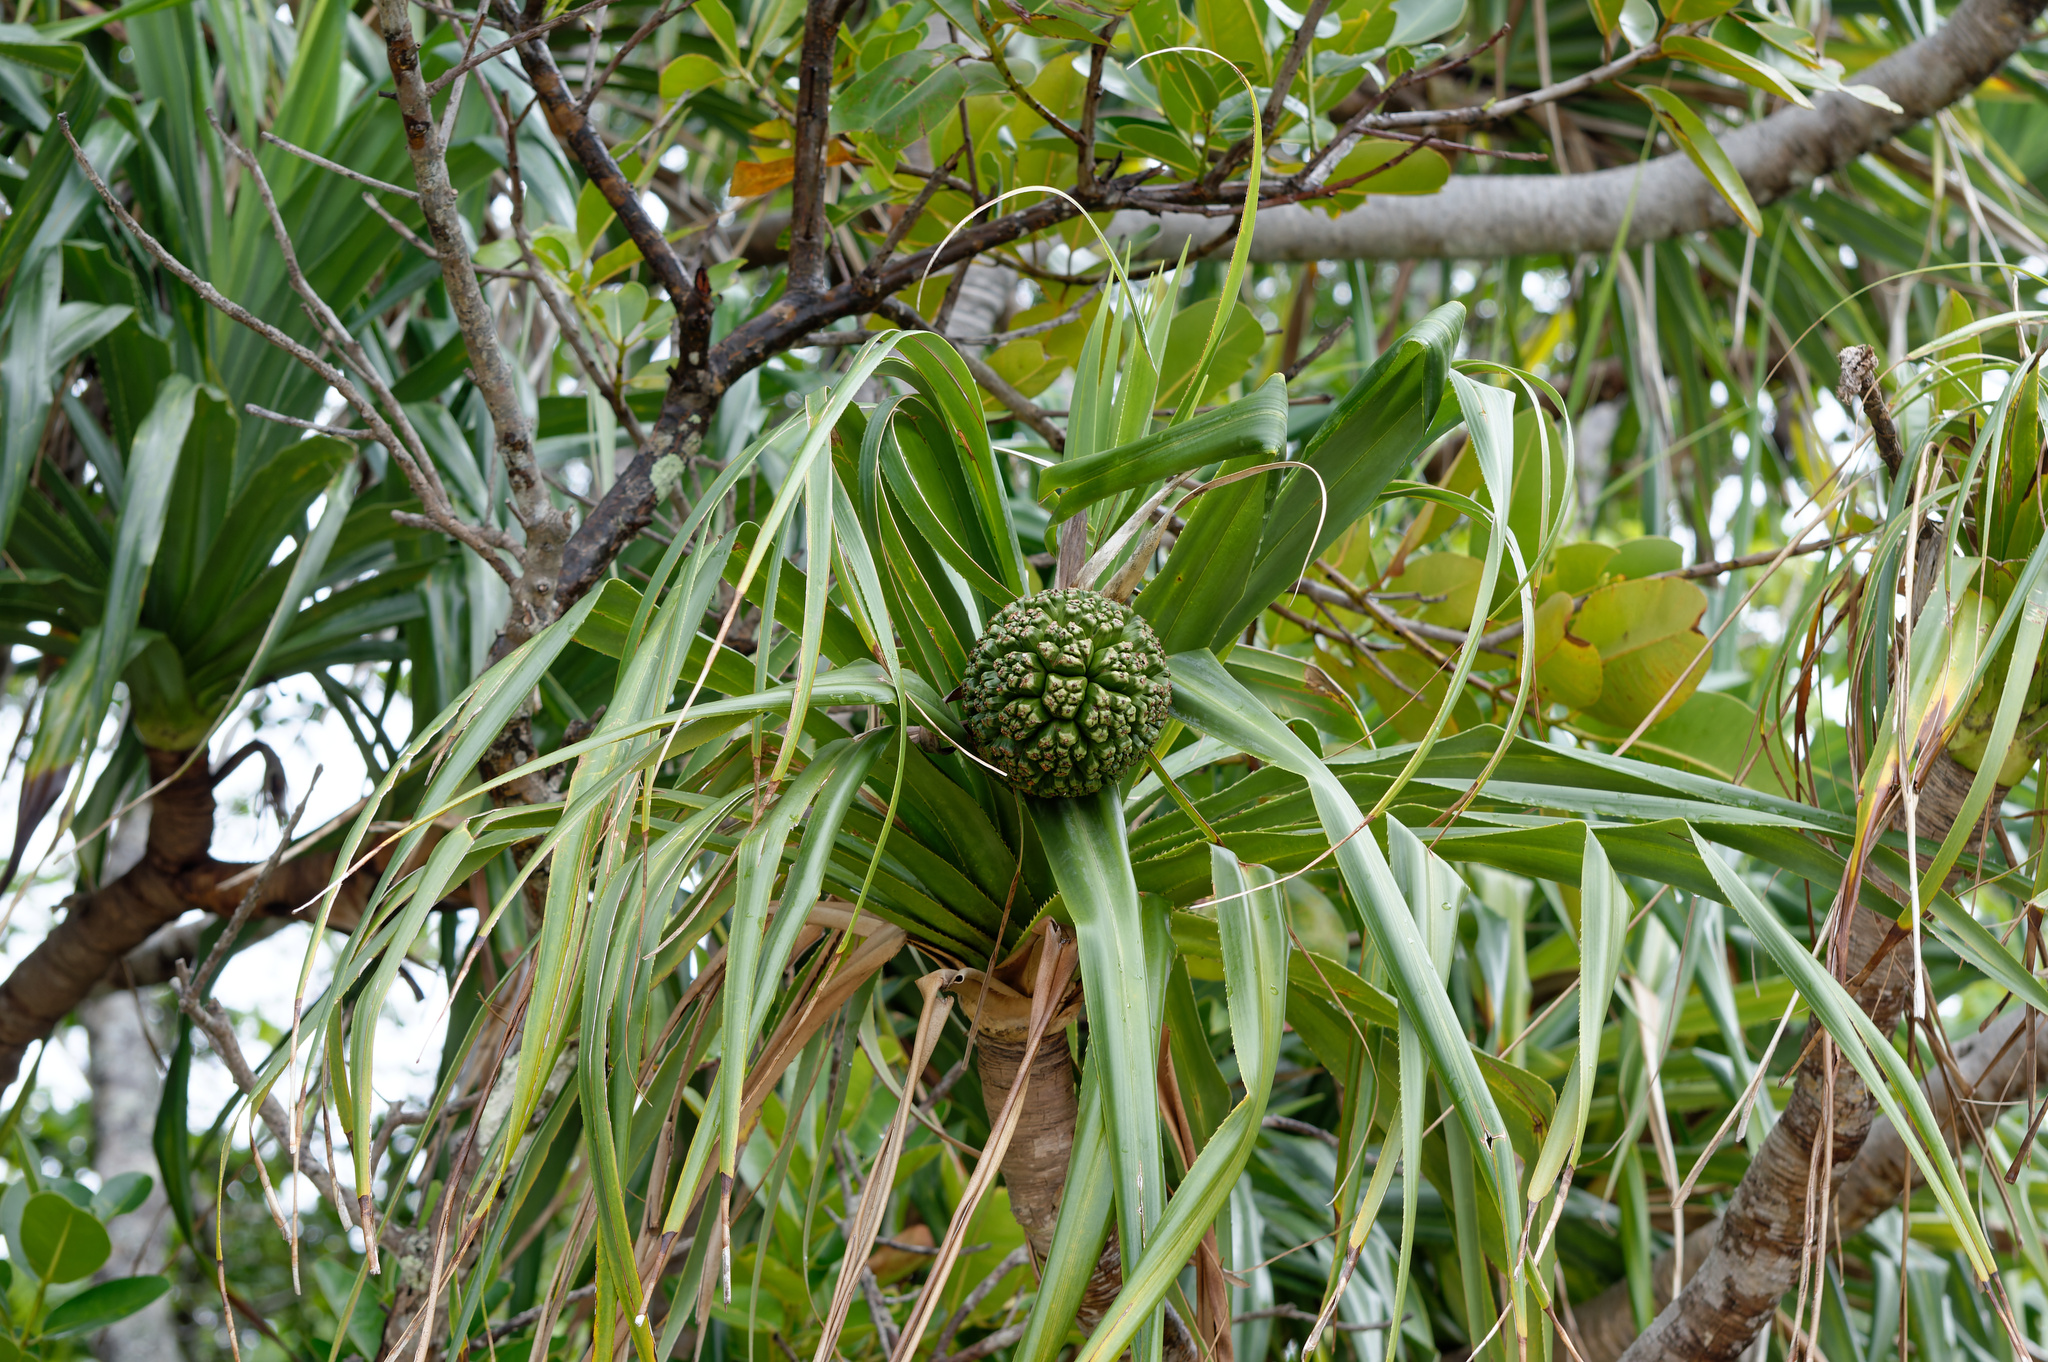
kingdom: Plantae
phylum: Tracheophyta
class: Liliopsida
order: Pandanales
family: Pandanaceae
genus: Pandanus
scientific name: Pandanus tectorius
